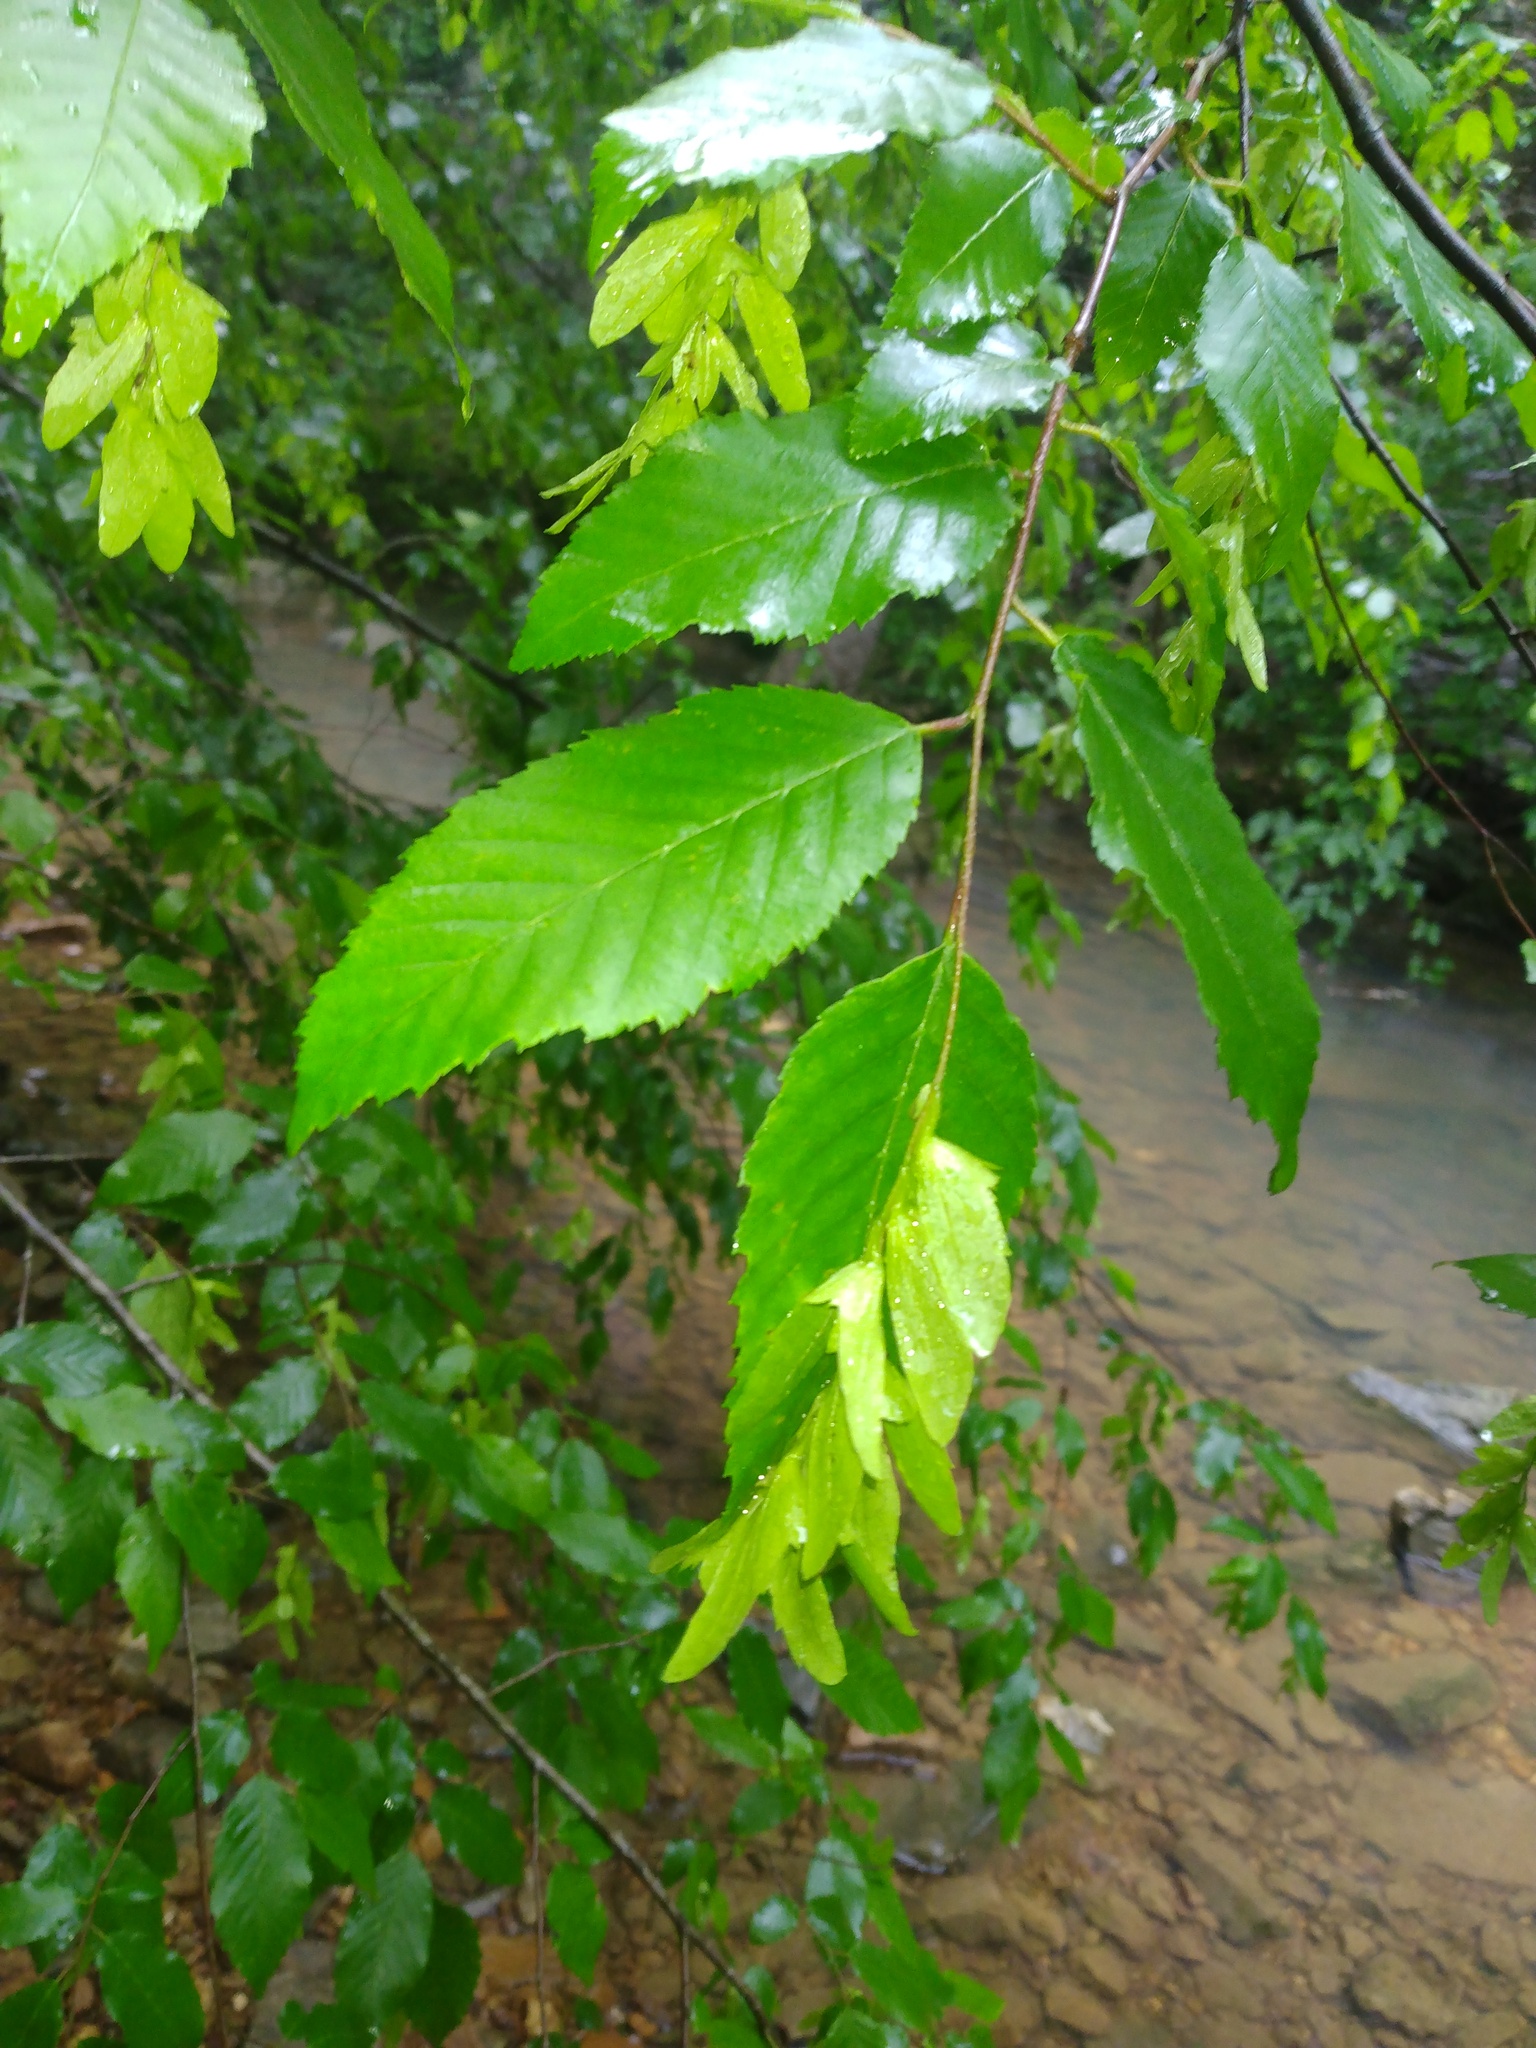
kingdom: Plantae
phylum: Tracheophyta
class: Magnoliopsida
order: Fagales
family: Betulaceae
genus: Carpinus
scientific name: Carpinus caroliniana
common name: American hornbeam
